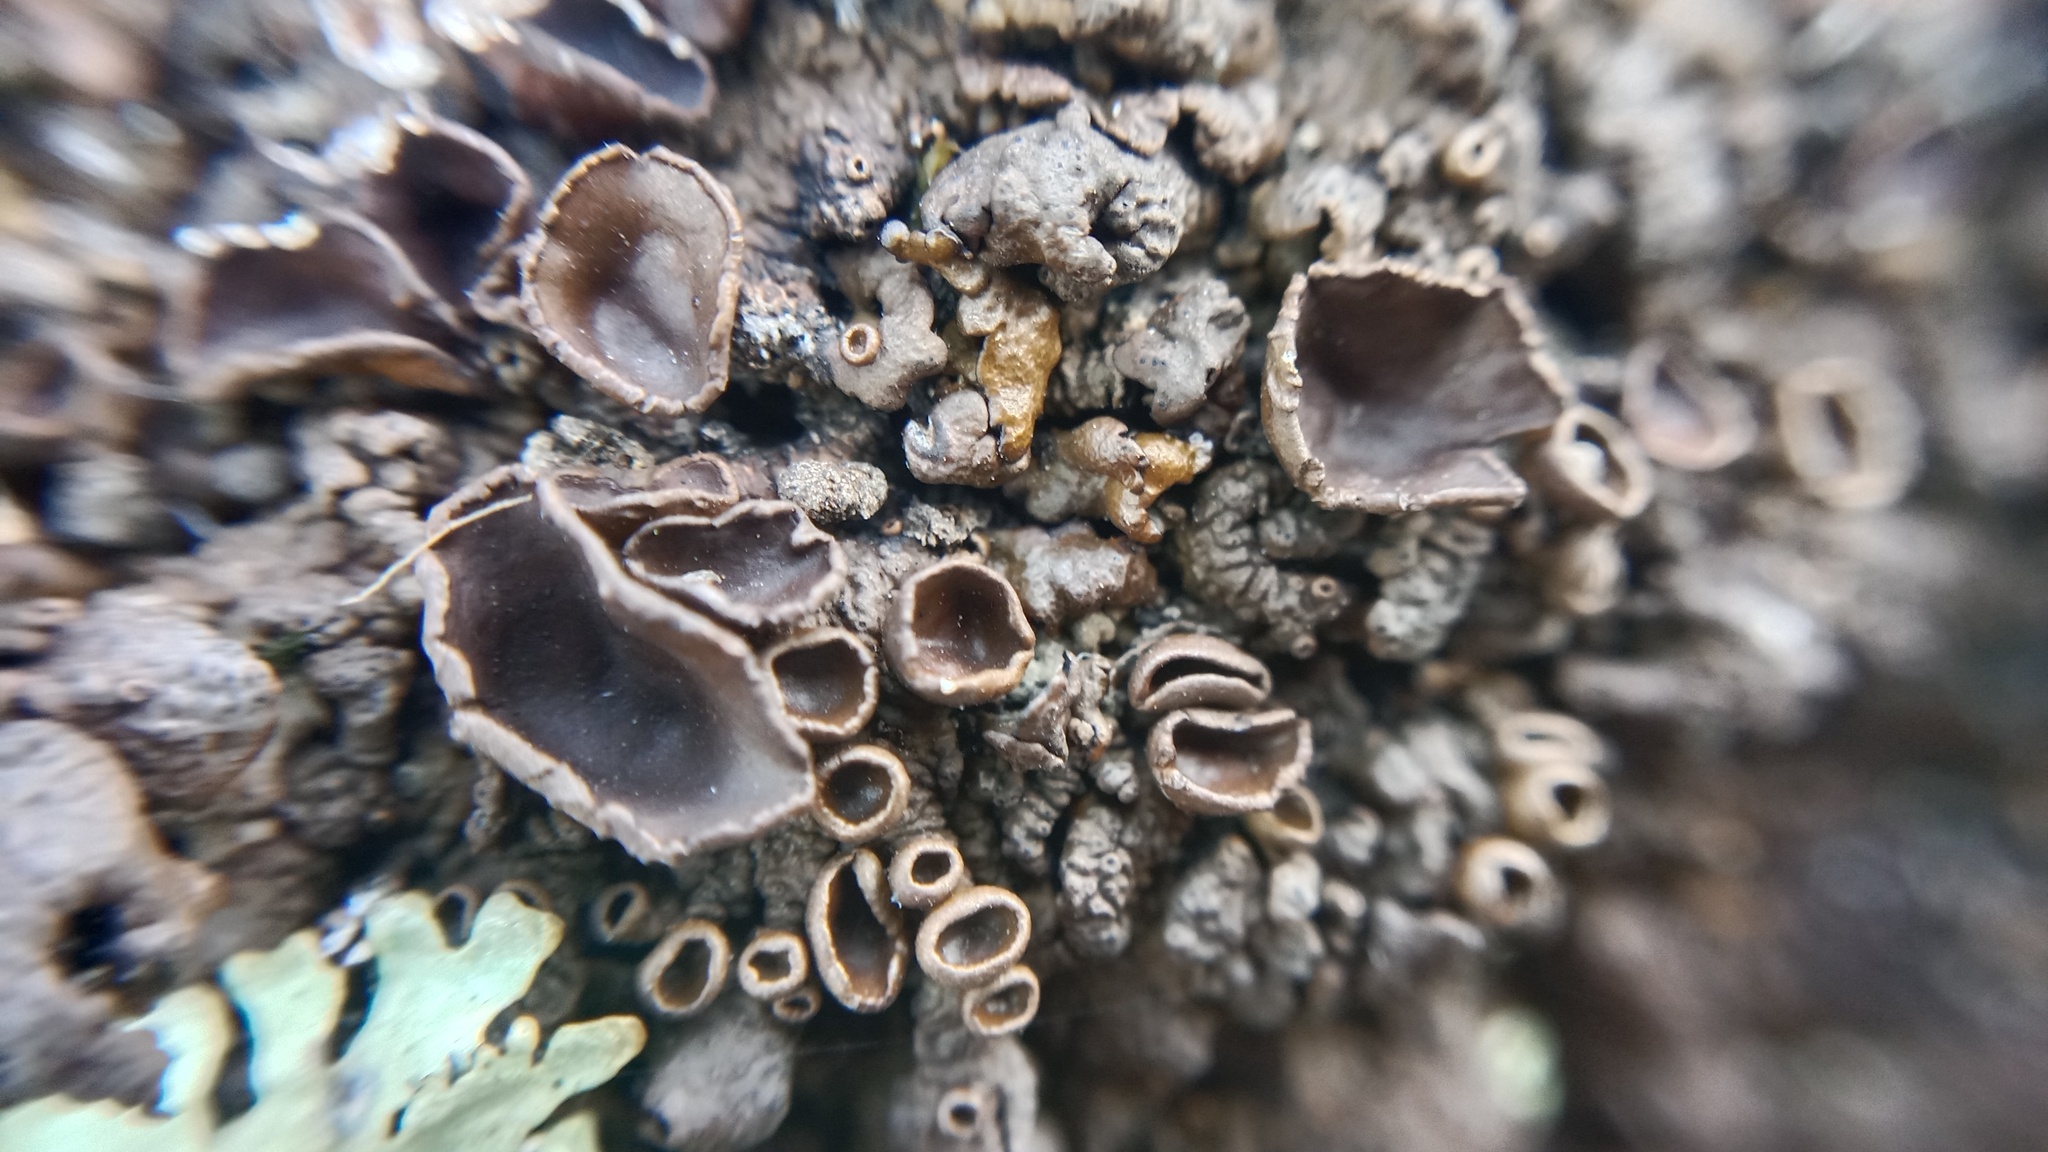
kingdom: Fungi
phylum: Ascomycota
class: Lecanoromycetes
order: Lecanorales
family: Parmeliaceae
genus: Xanthoparmelia
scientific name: Xanthoparmelia pulla
